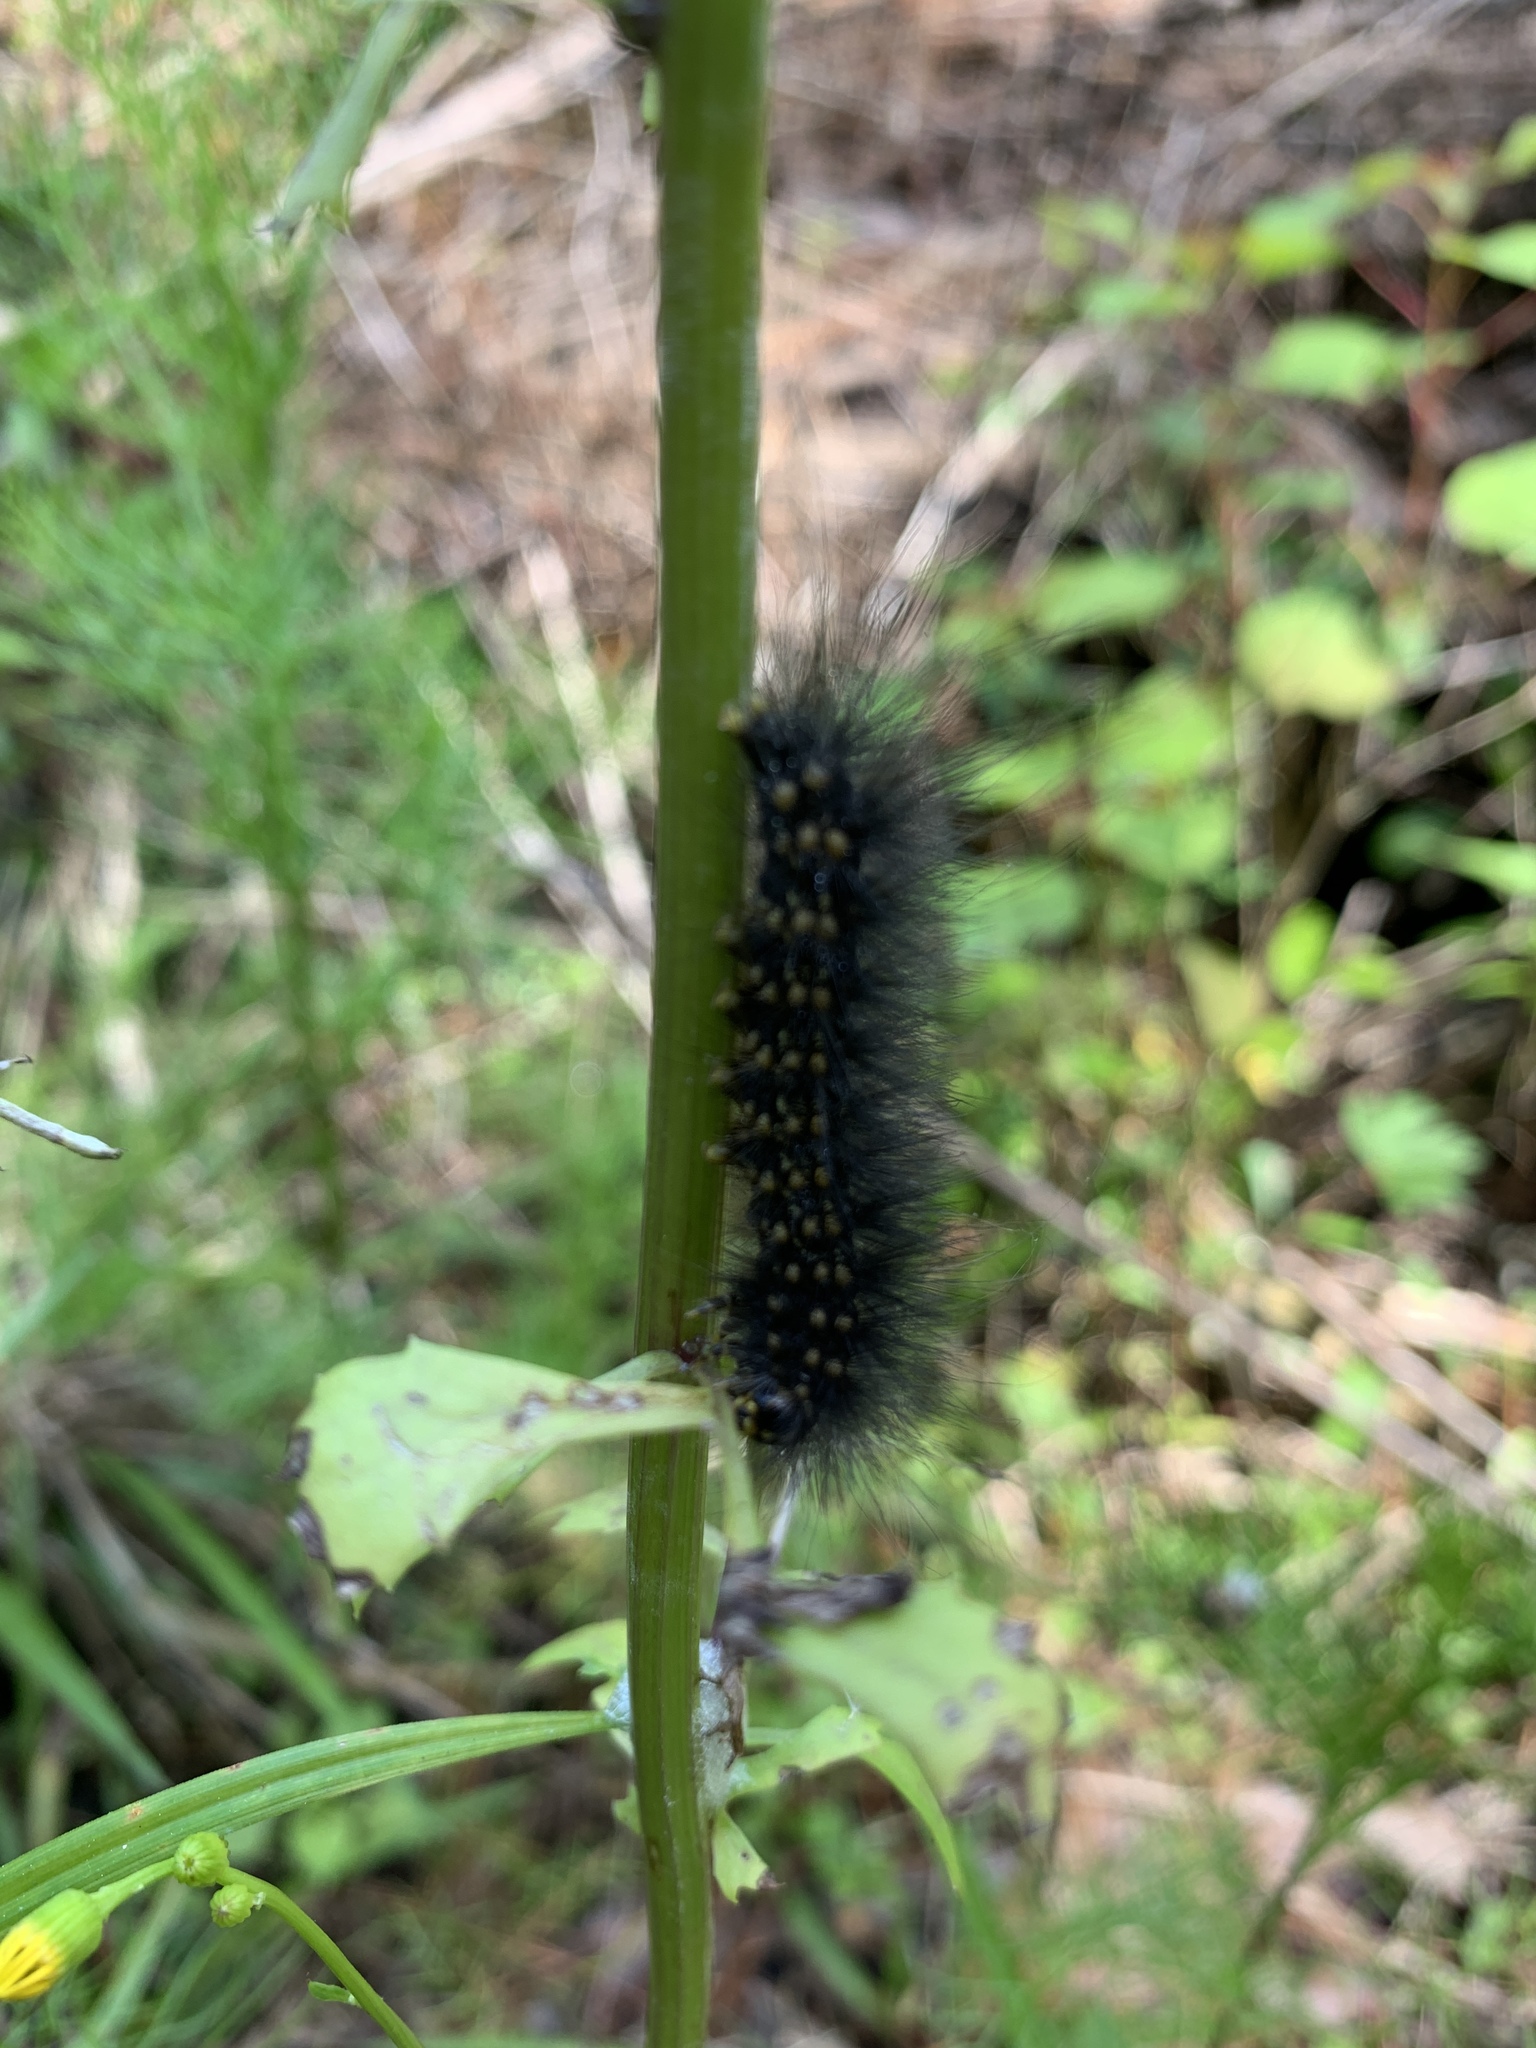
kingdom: Animalia
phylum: Arthropoda
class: Insecta
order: Lepidoptera
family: Erebidae
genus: Estigmene
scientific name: Estigmene acrea
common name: Salt marsh moth
